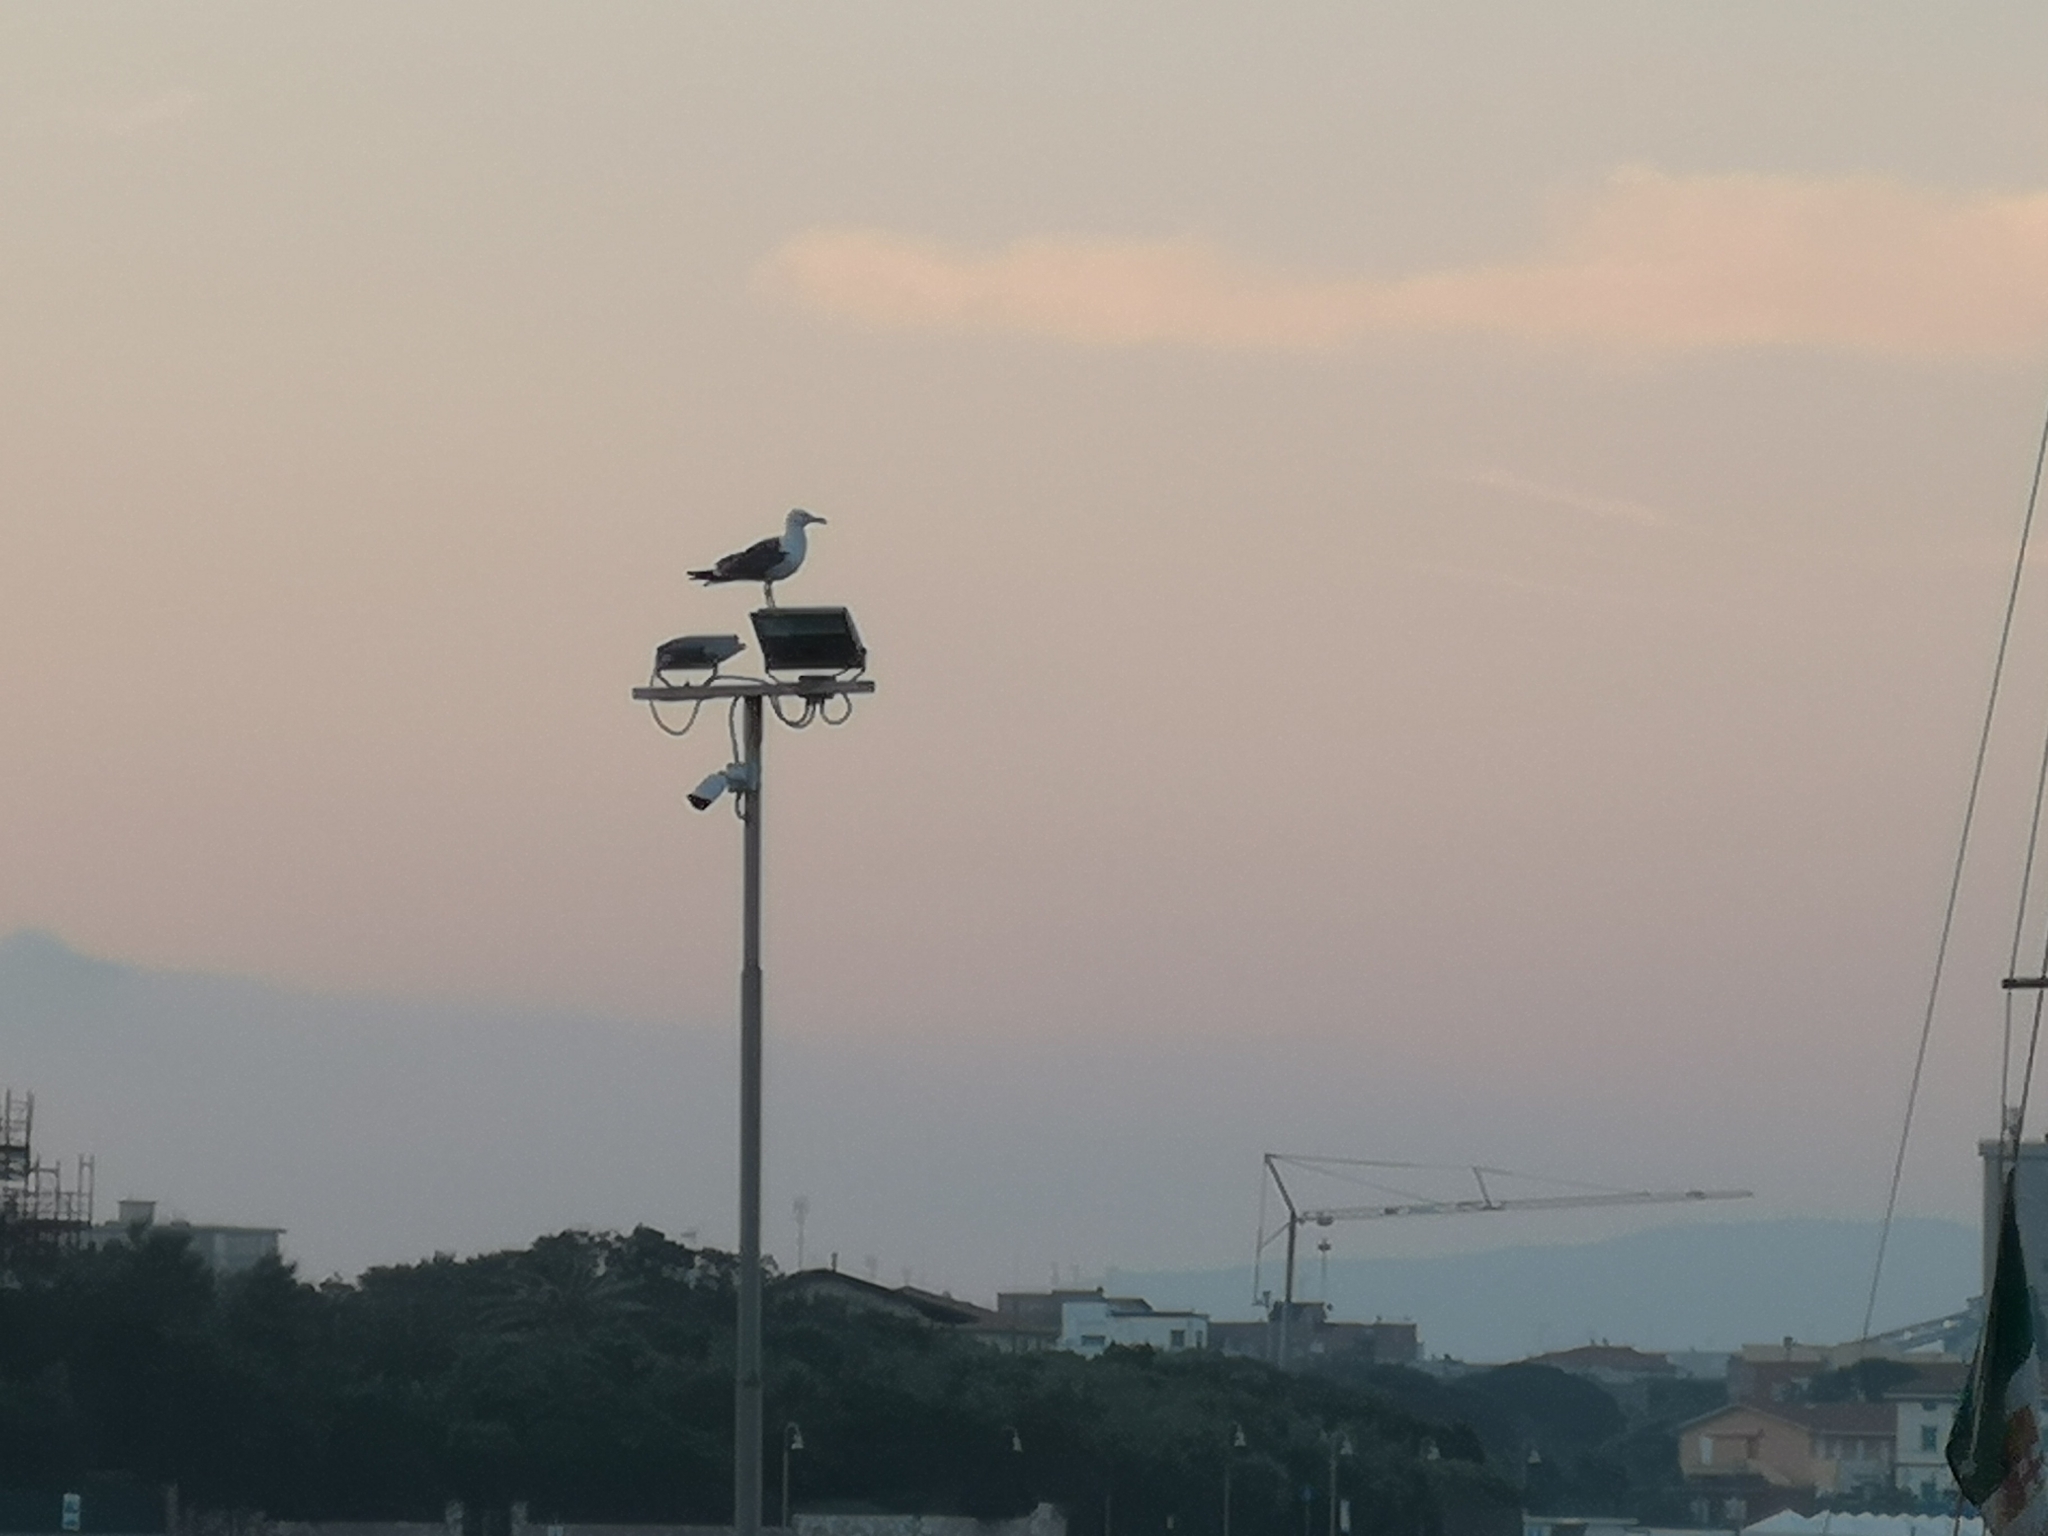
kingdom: Animalia
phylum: Chordata
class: Aves
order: Charadriiformes
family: Laridae
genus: Larus
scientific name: Larus michahellis
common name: Yellow-legged gull
